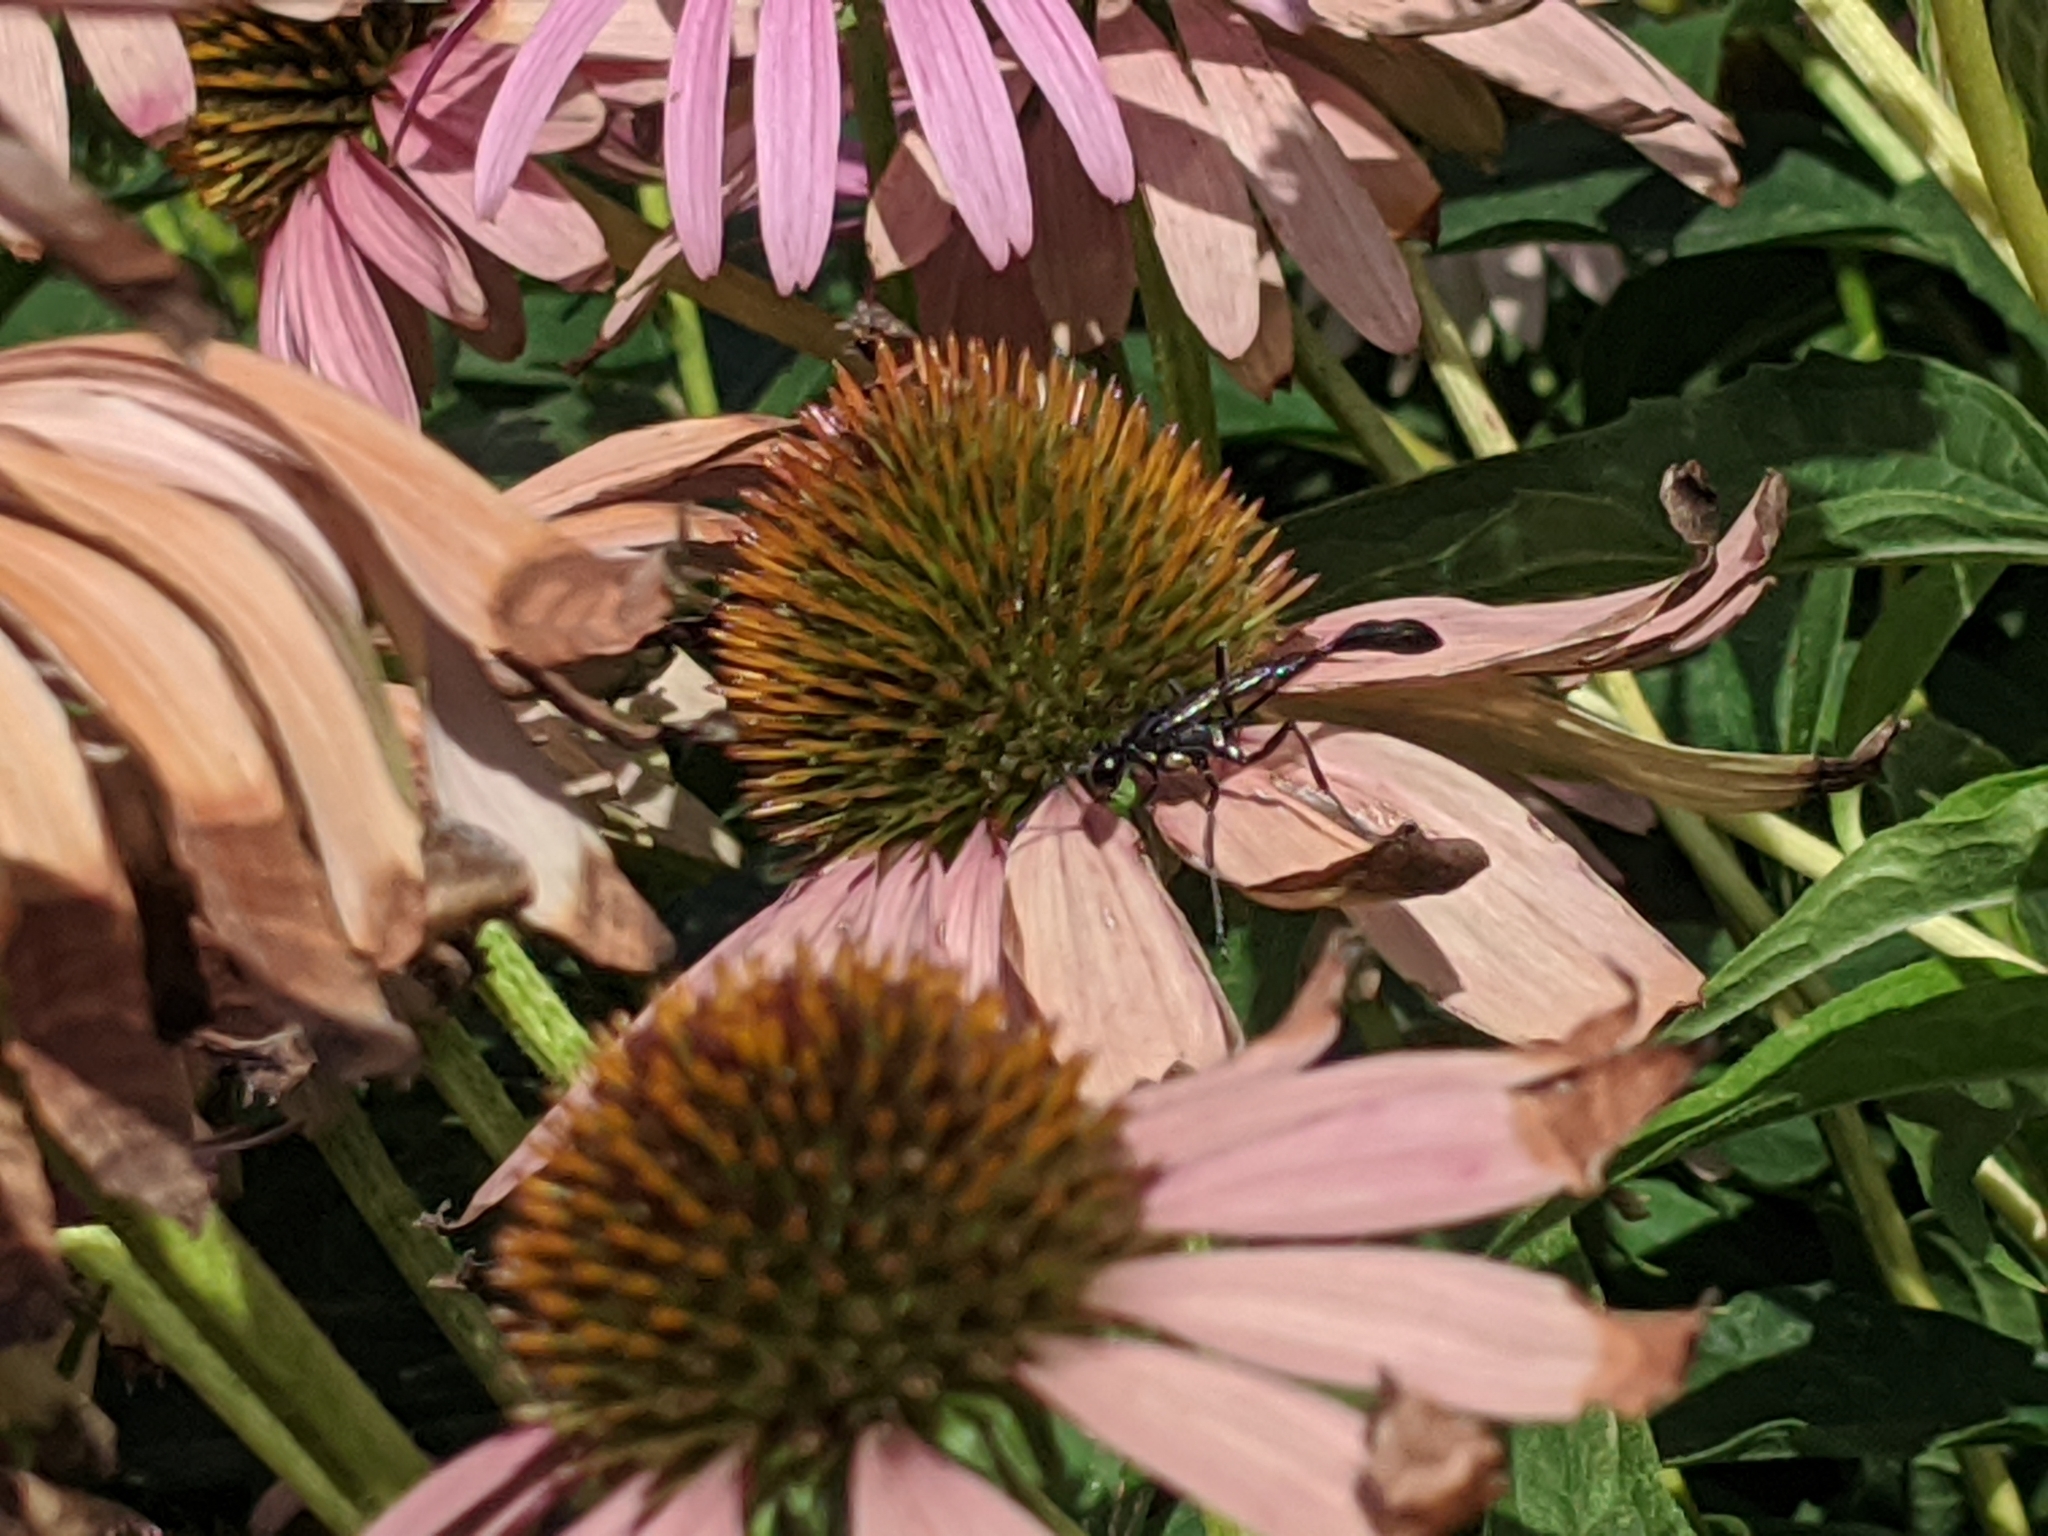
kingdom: Animalia
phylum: Arthropoda
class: Insecta
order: Hymenoptera
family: Sphecidae
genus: Eremnophila
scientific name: Eremnophila aureonotata
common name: Gold-marked thread-waisted wasp
